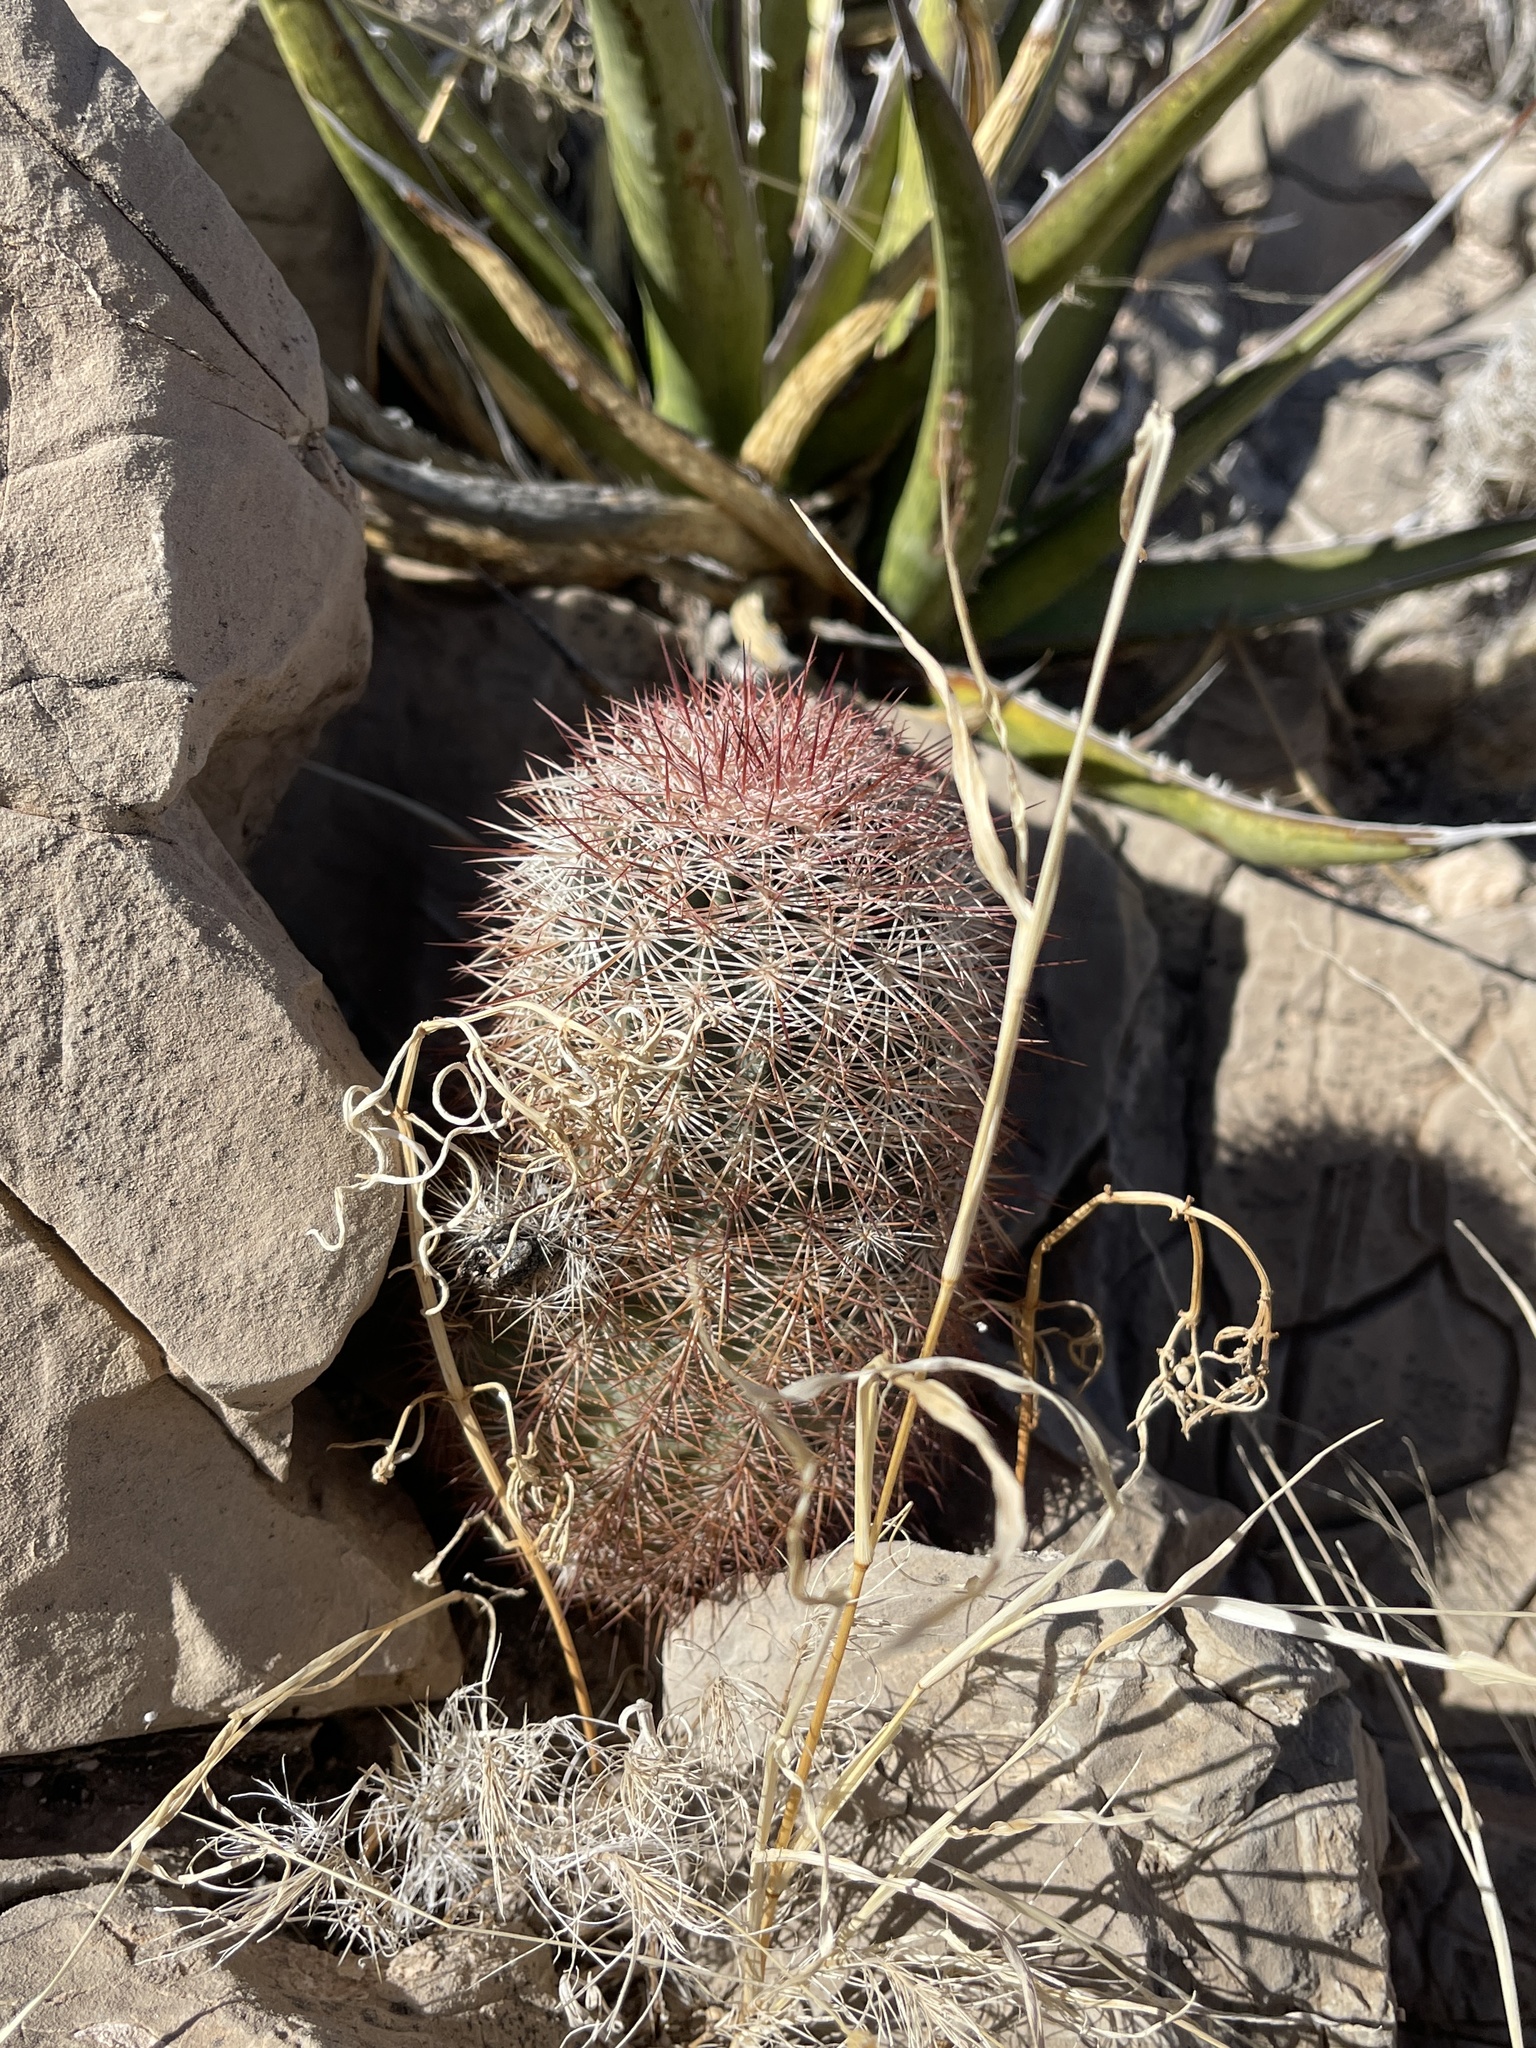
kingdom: Plantae
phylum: Tracheophyta
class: Magnoliopsida
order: Caryophyllales
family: Cactaceae
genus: Echinocereus
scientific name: Echinocereus dasyacanthus
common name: Spiny hedgehog cactus
